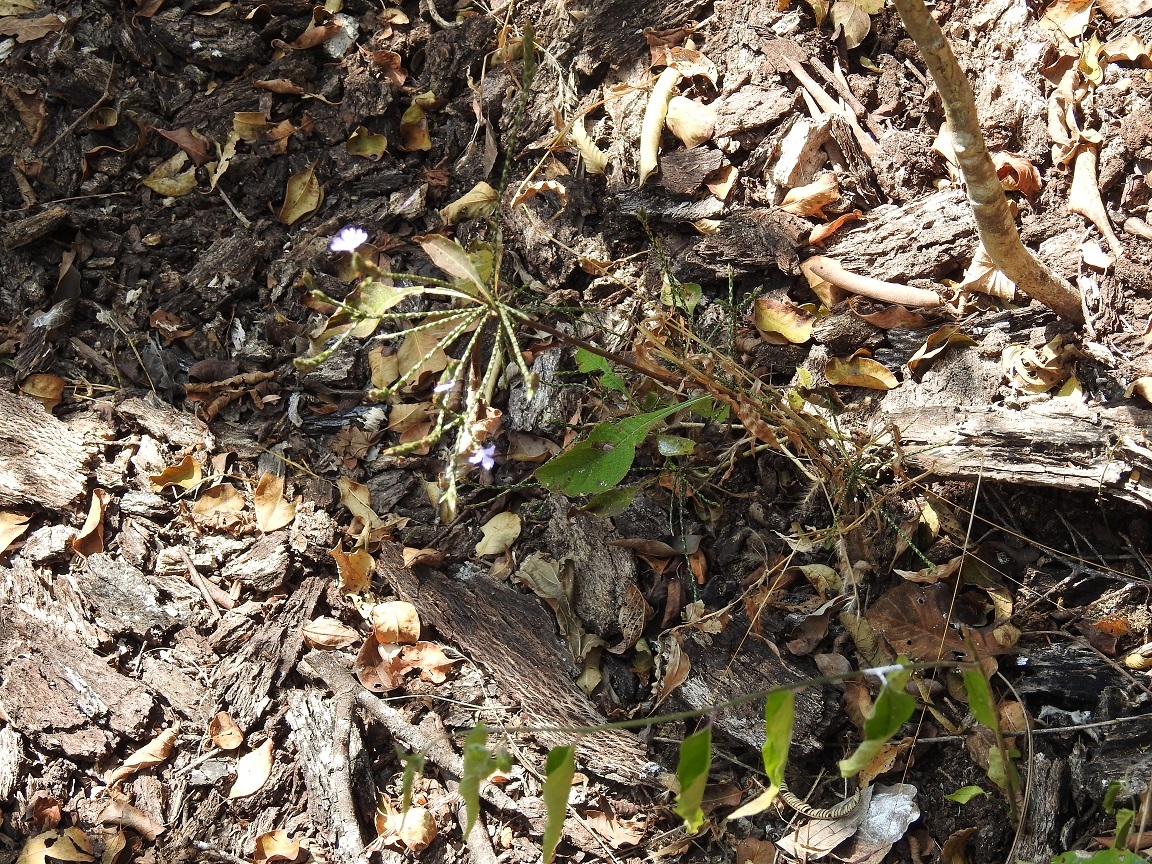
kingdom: Plantae
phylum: Tracheophyta
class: Magnoliopsida
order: Lamiales
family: Acanthaceae
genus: Elytraria
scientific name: Elytraria imbricata
